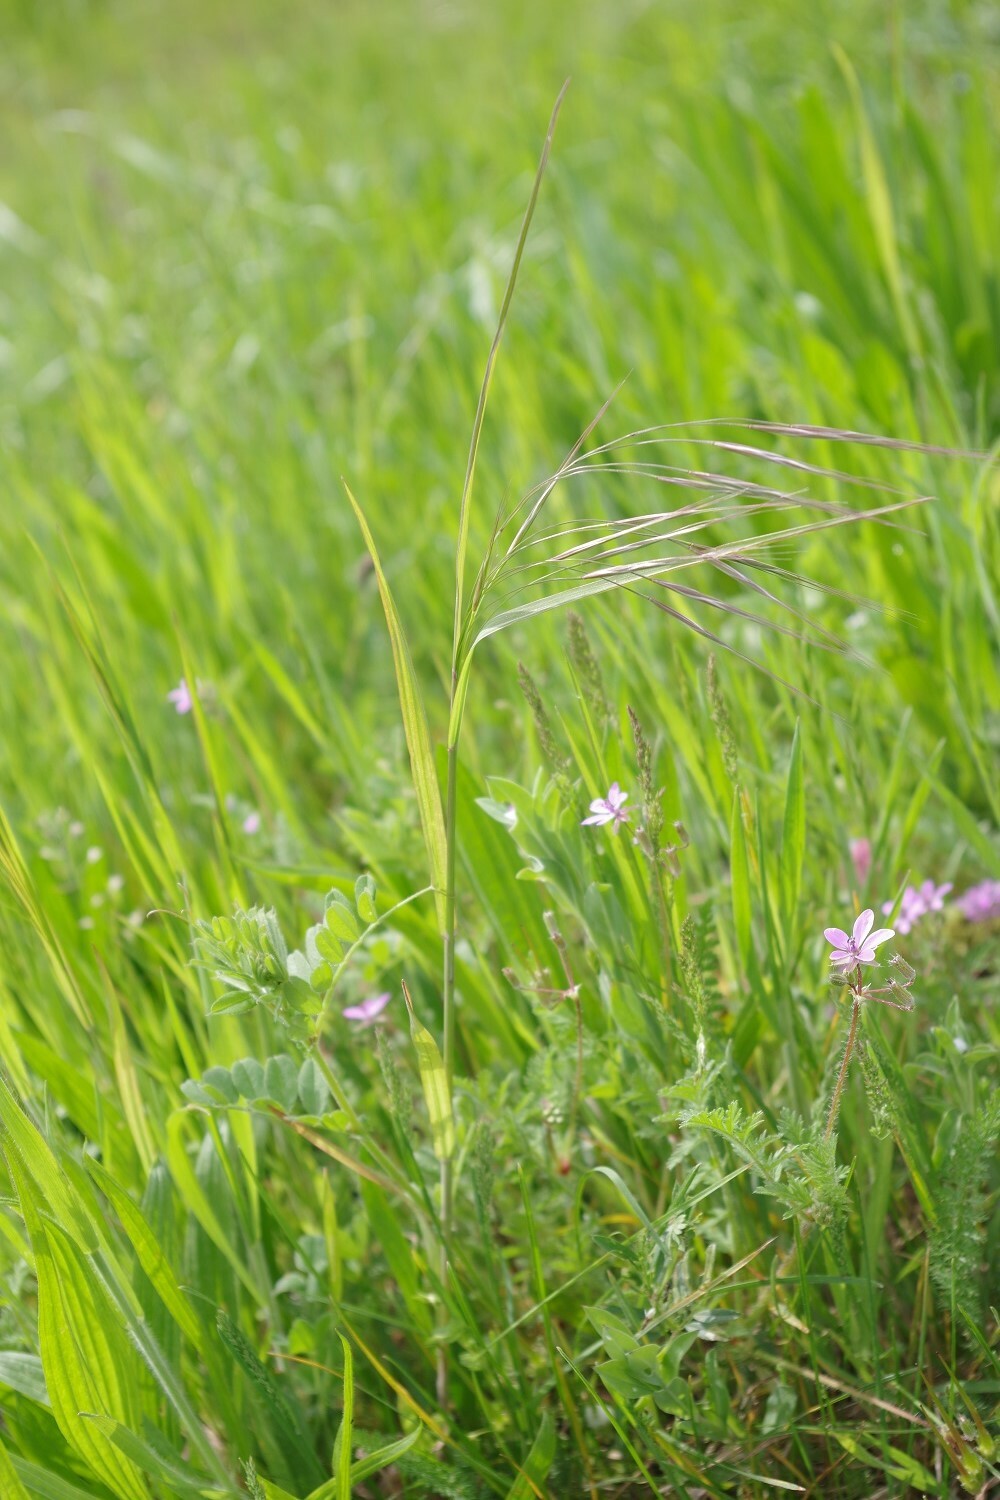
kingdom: Plantae
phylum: Tracheophyta
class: Liliopsida
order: Poales
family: Poaceae
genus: Bromus
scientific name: Bromus sterilis
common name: Poverty brome
